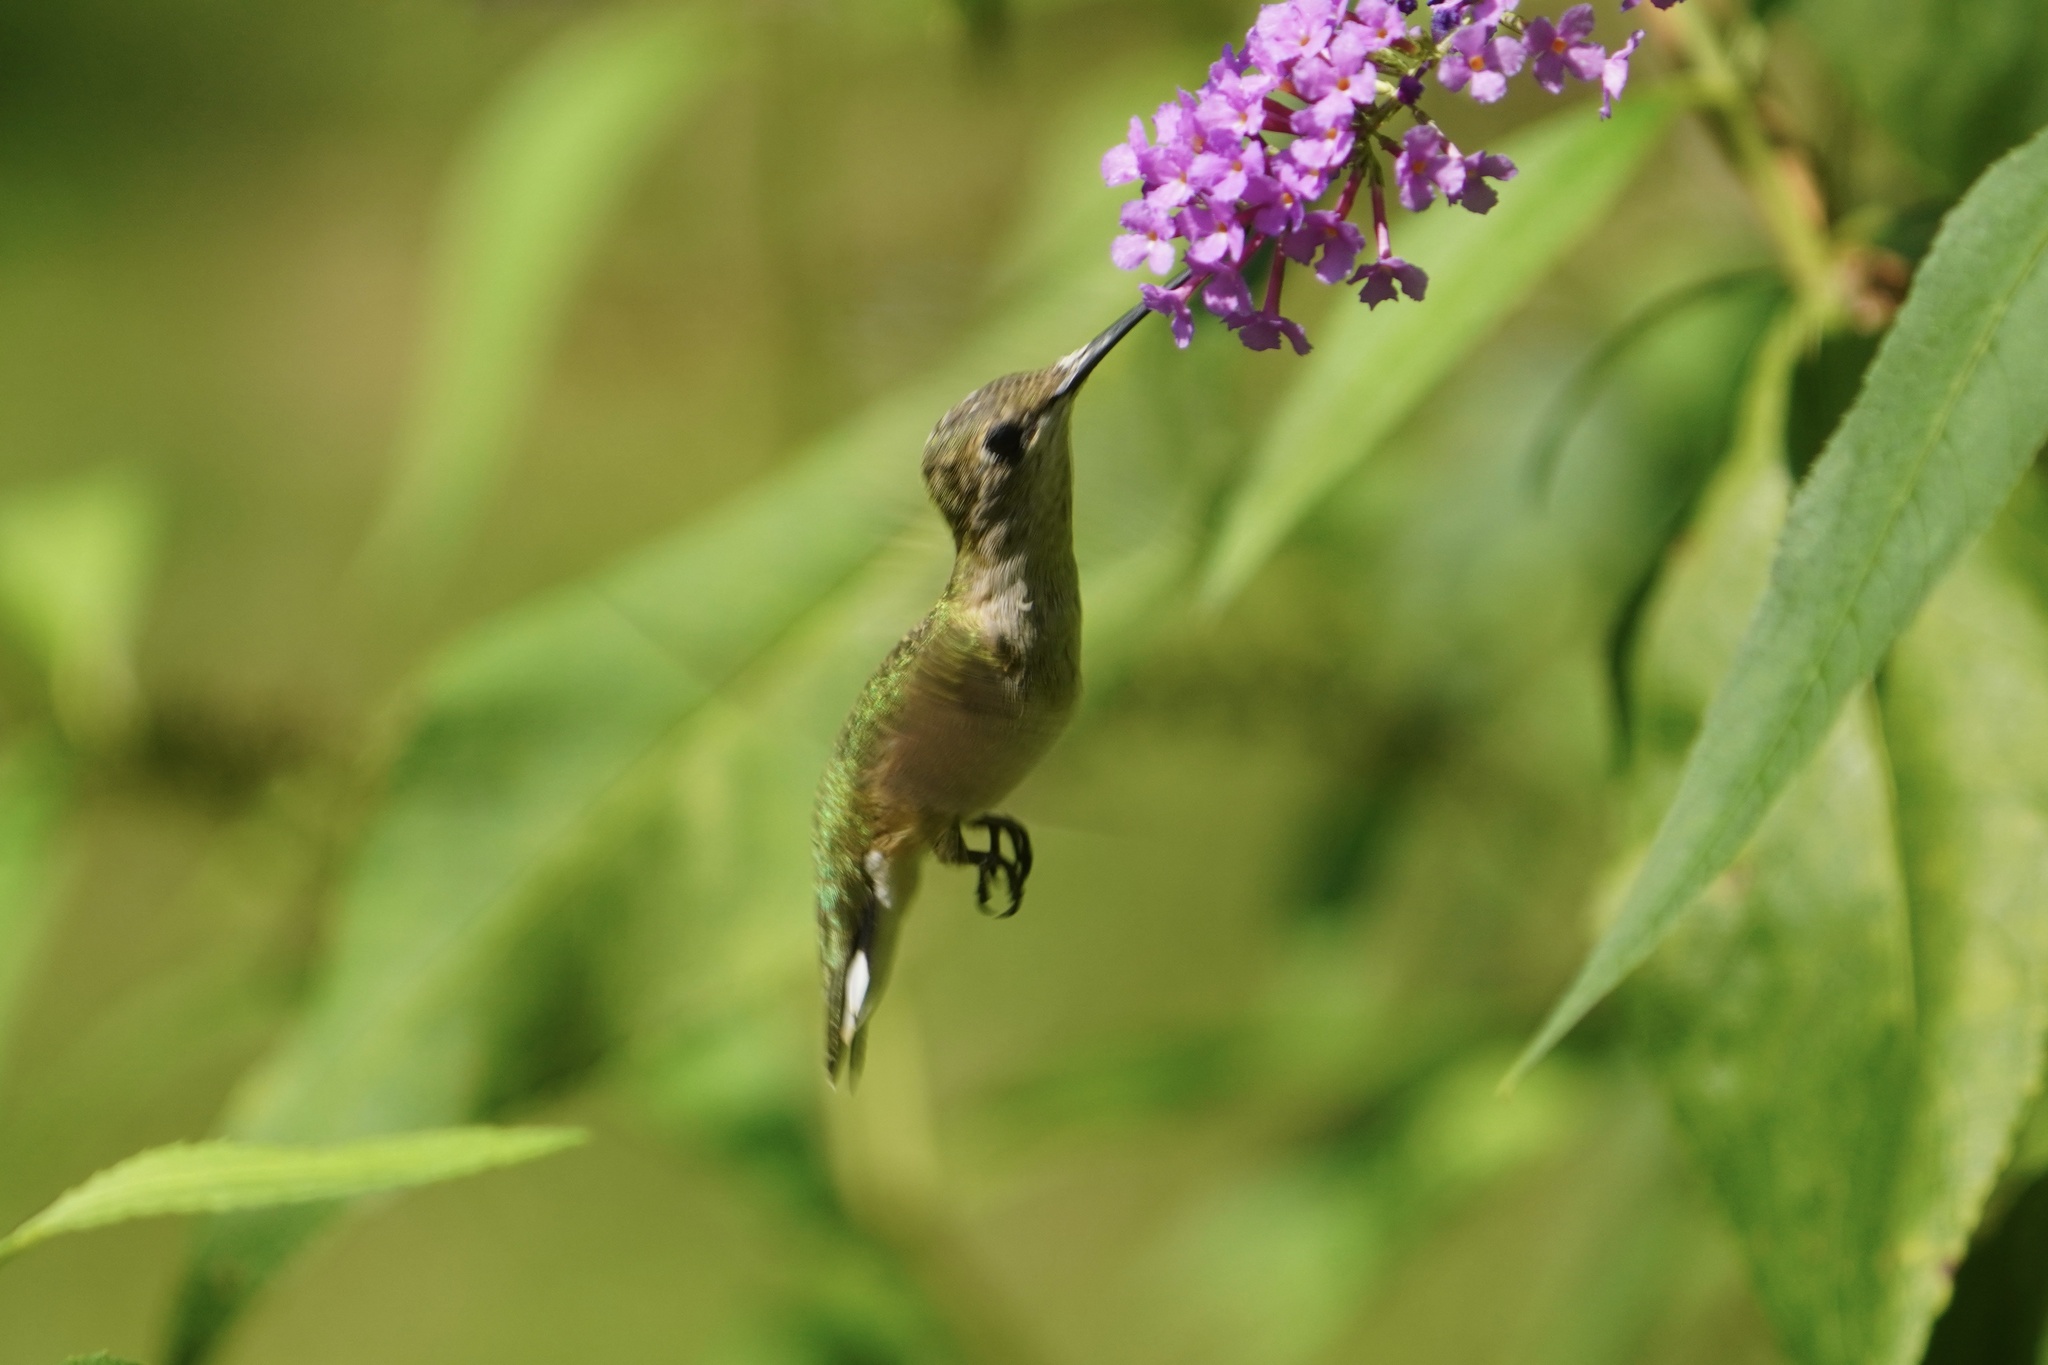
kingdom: Animalia
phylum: Chordata
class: Aves
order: Apodiformes
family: Trochilidae
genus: Archilochus
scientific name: Archilochus colubris
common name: Ruby-throated hummingbird
